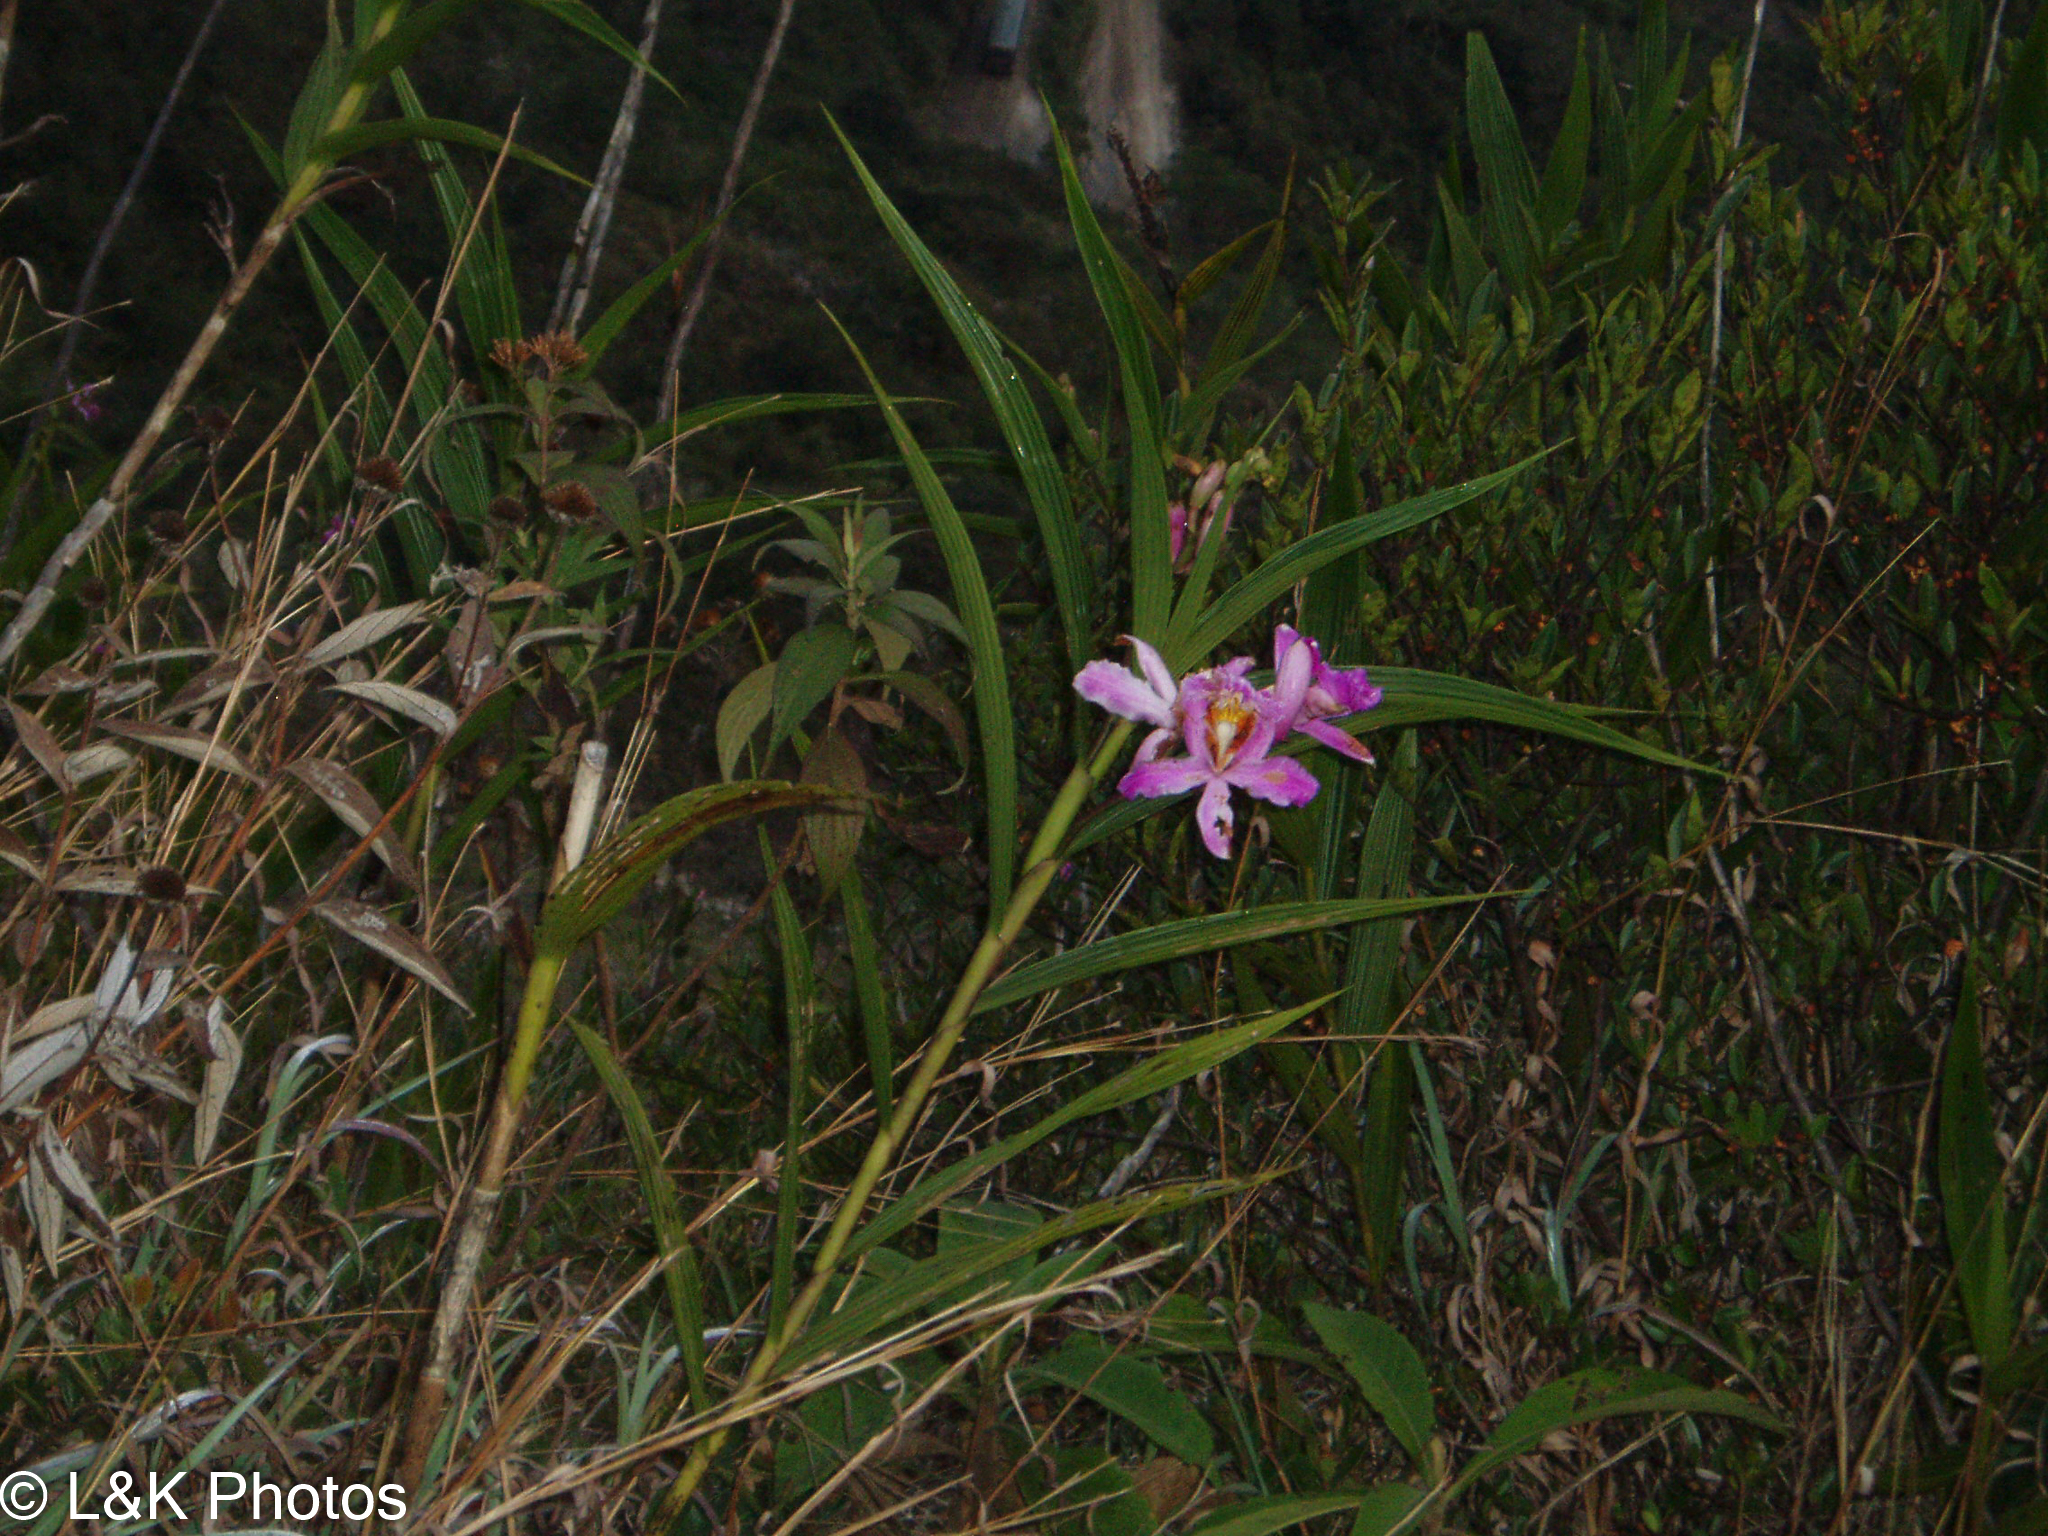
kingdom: Plantae
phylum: Tracheophyta
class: Liliopsida
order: Asparagales
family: Orchidaceae
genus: Sobralia
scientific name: Sobralia dichotoma
